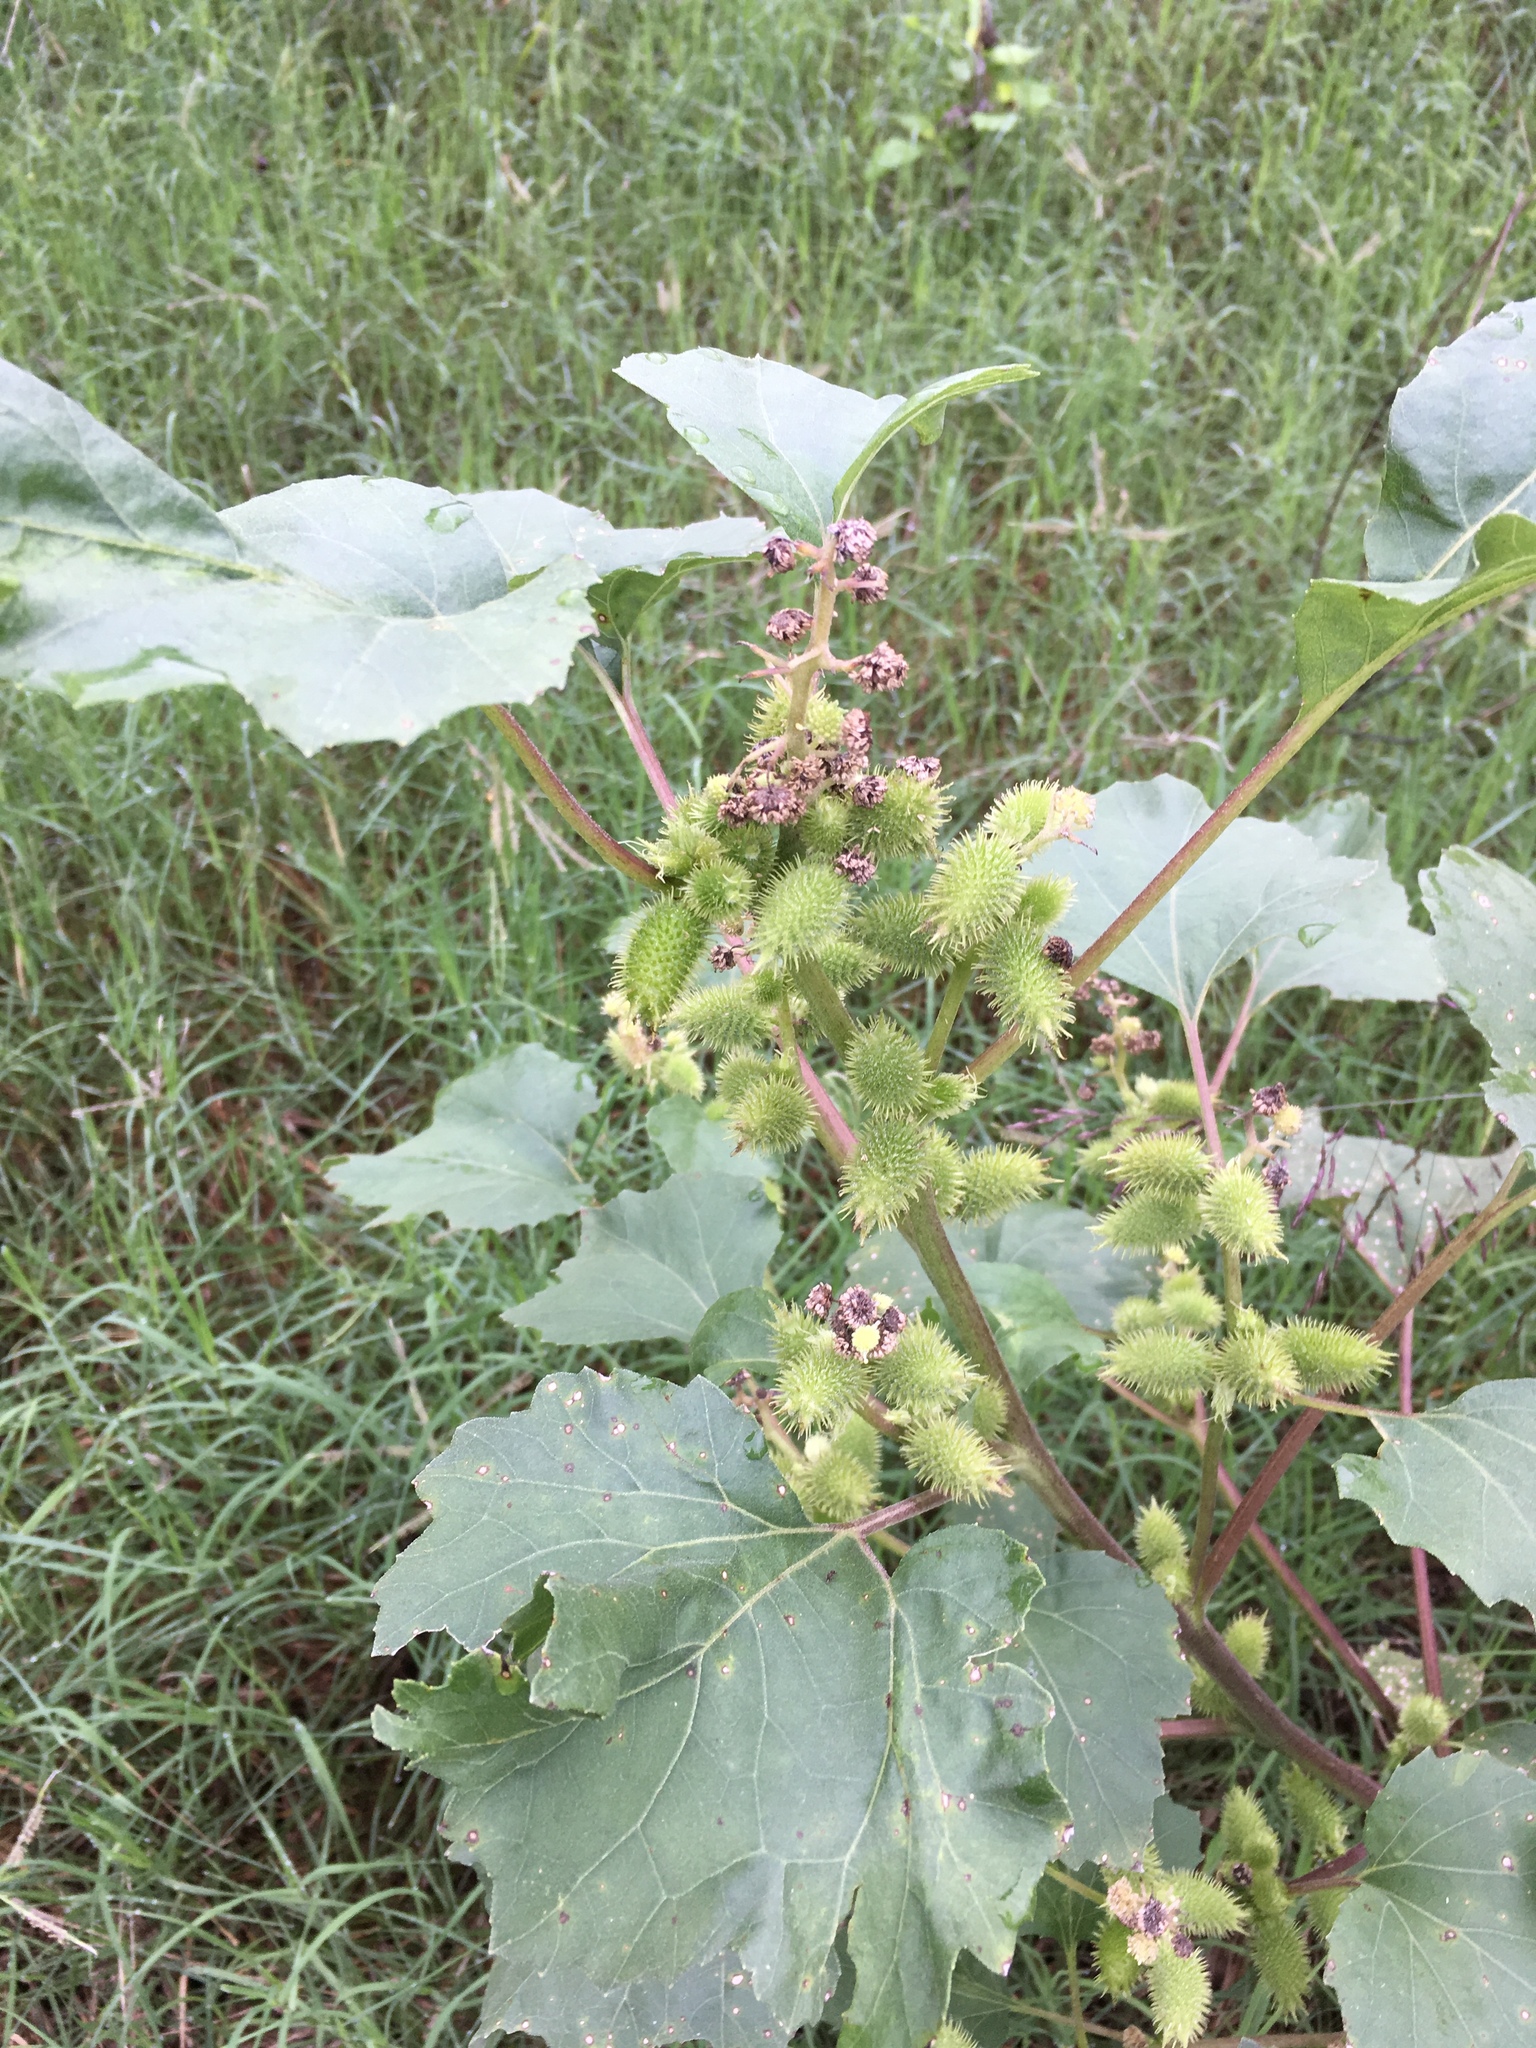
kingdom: Plantae
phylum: Tracheophyta
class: Magnoliopsida
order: Asterales
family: Asteraceae
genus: Xanthium
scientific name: Xanthium strumarium
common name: Rough cocklebur
